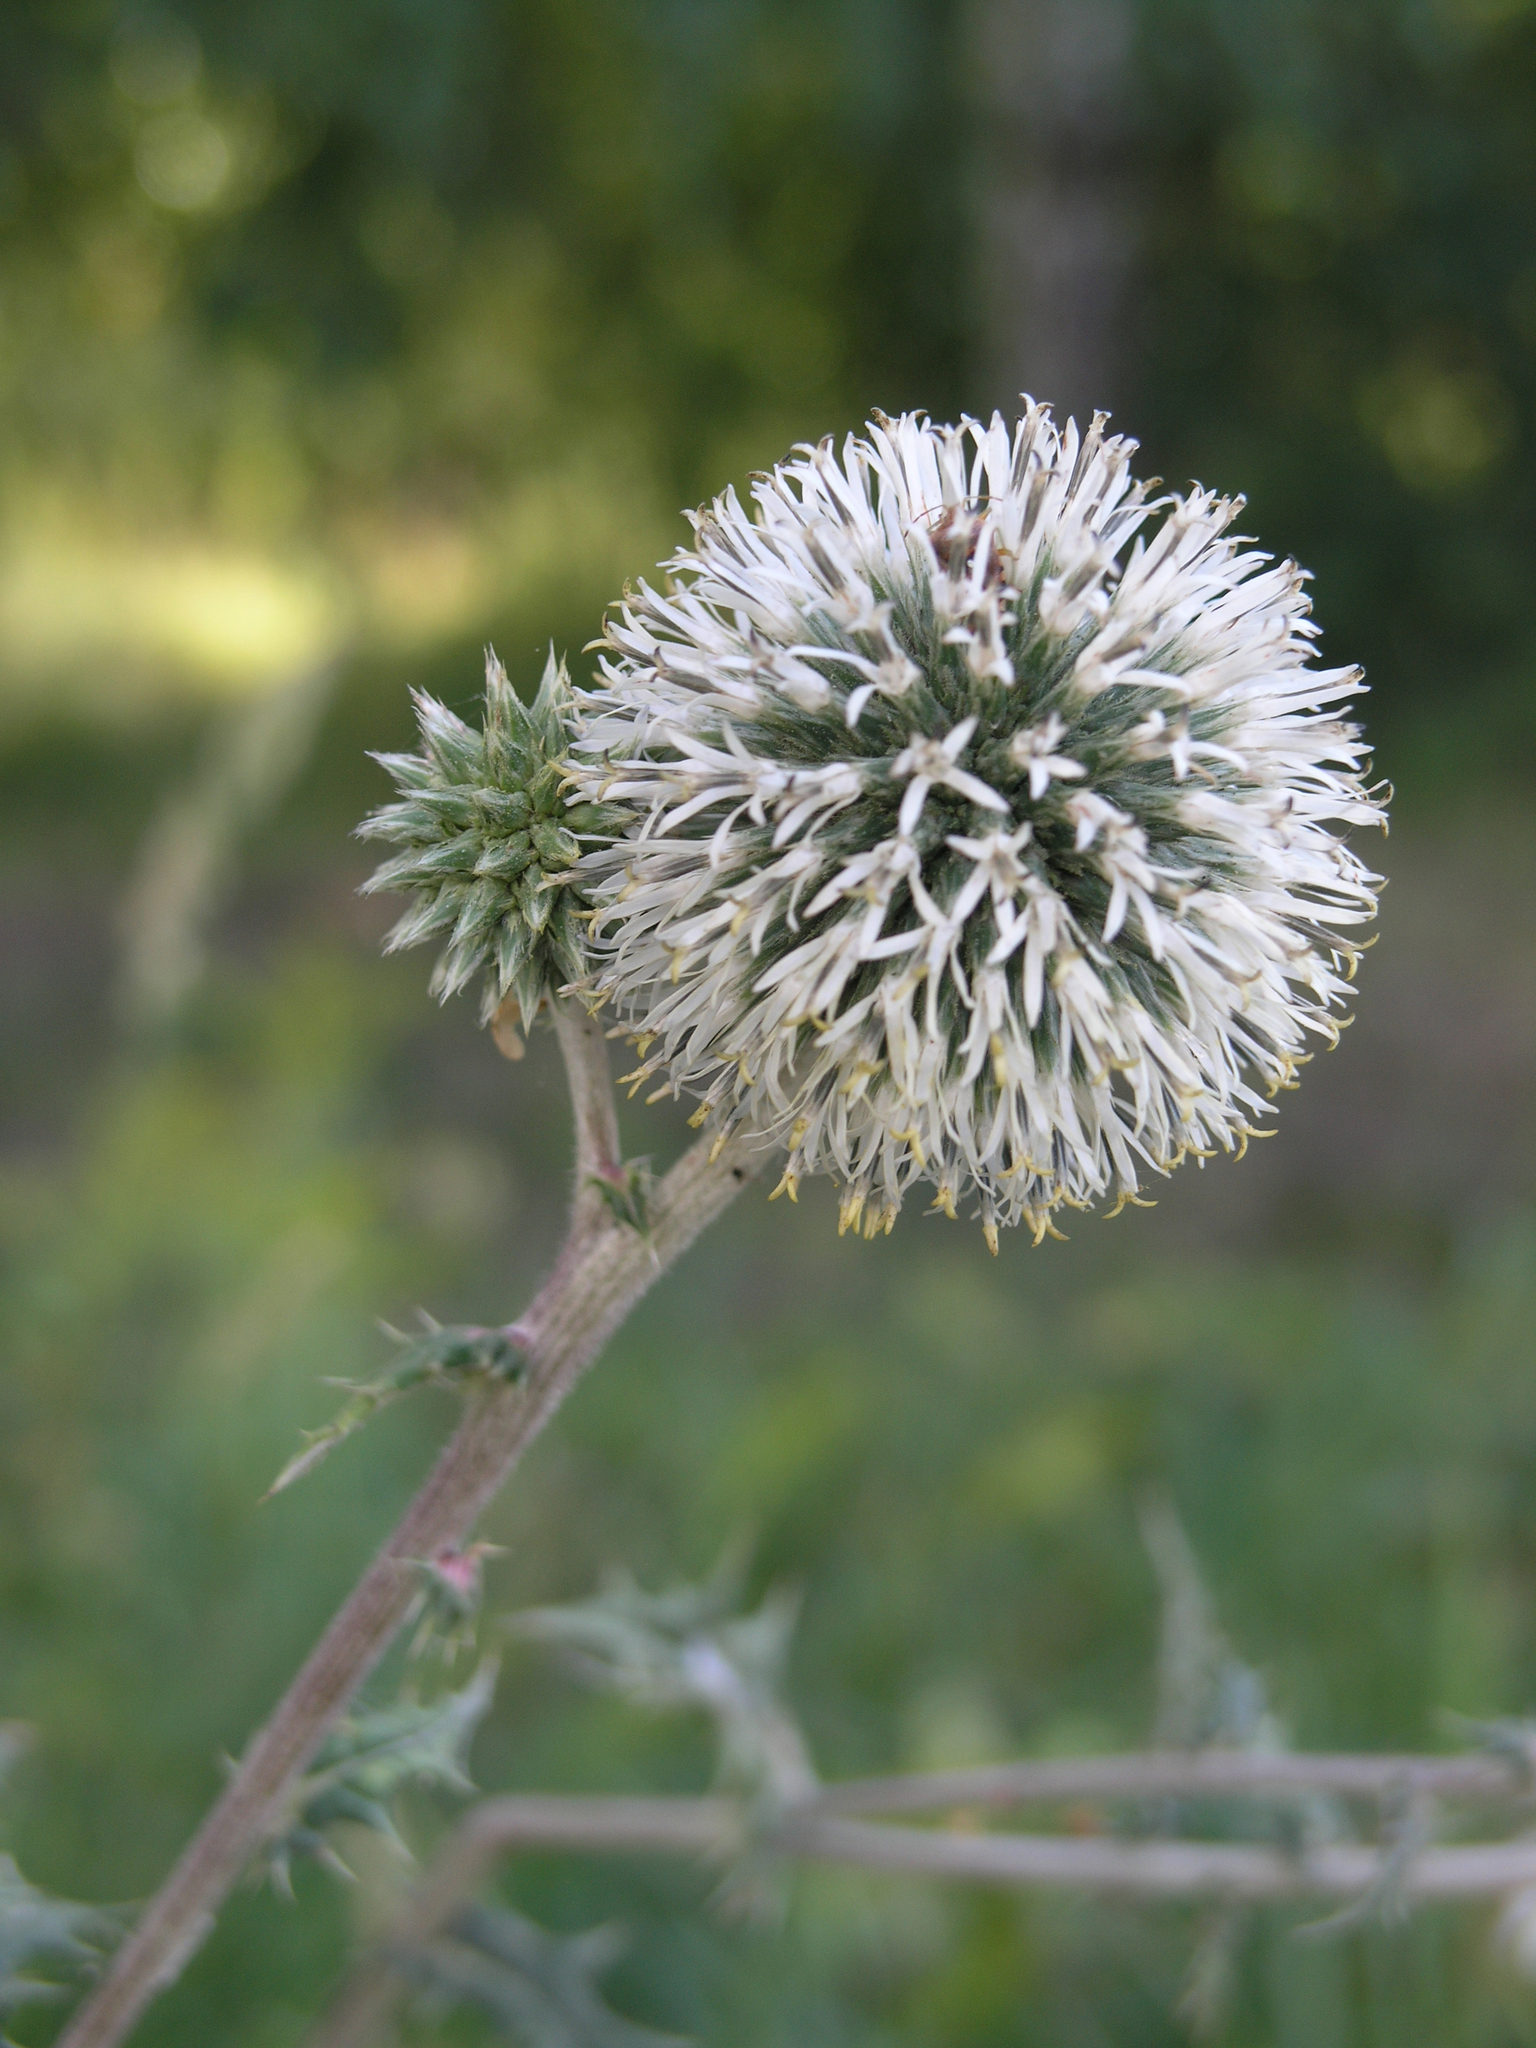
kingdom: Plantae
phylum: Tracheophyta
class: Magnoliopsida
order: Asterales
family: Asteraceae
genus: Echinops
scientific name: Echinops sphaerocephalus
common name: Glandular globe-thistle
